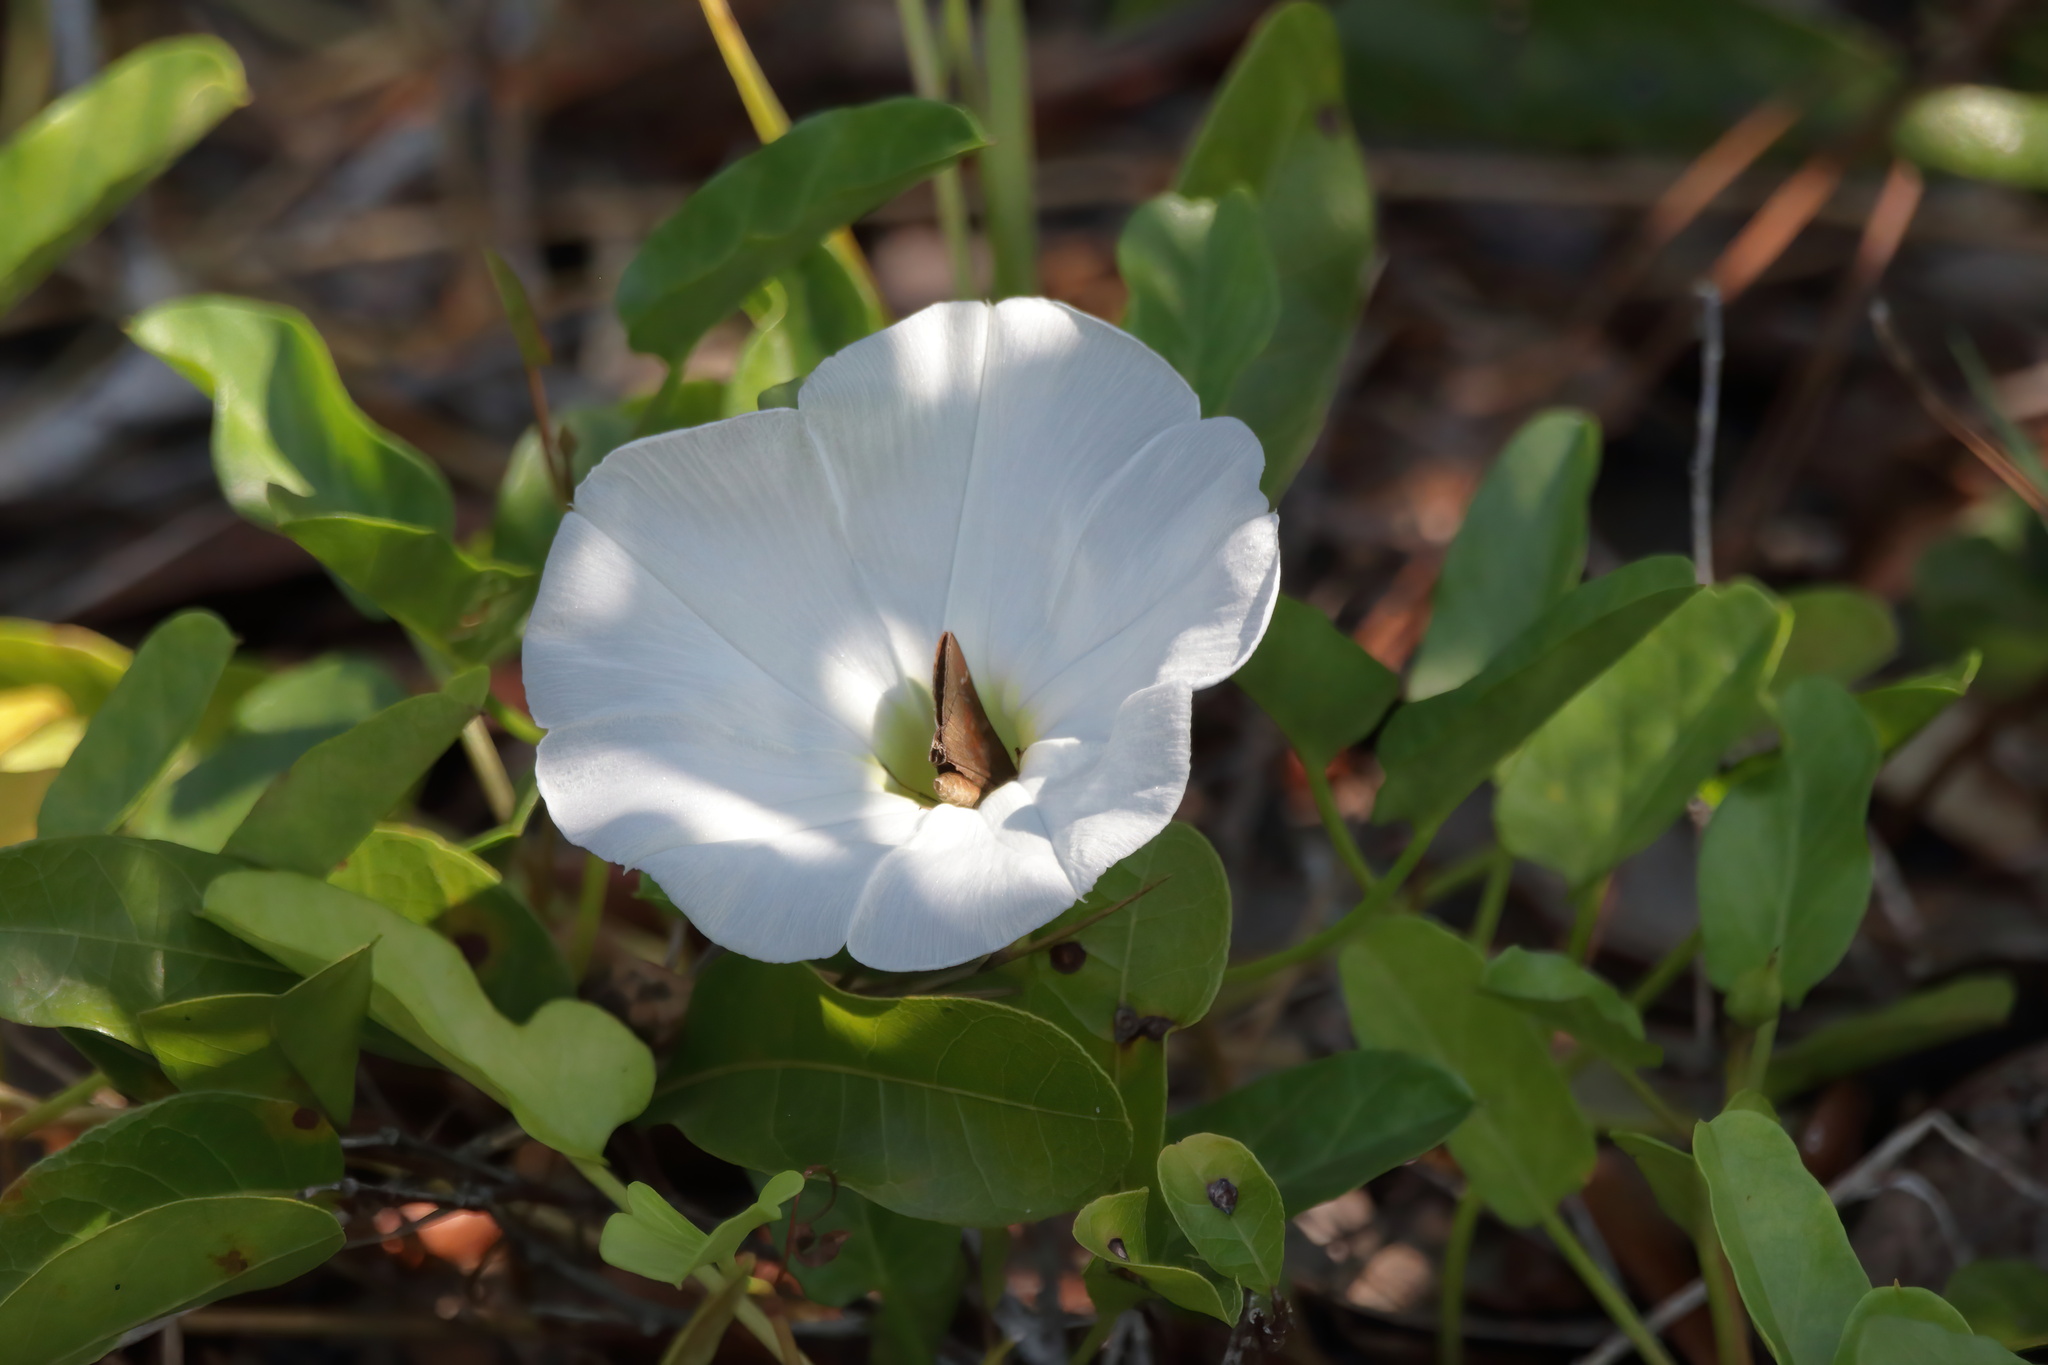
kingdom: Plantae
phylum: Tracheophyta
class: Magnoliopsida
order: Solanales
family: Convolvulaceae
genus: Ipomoea
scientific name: Ipomoea imperati
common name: Fiddle-leaf morning-glory
